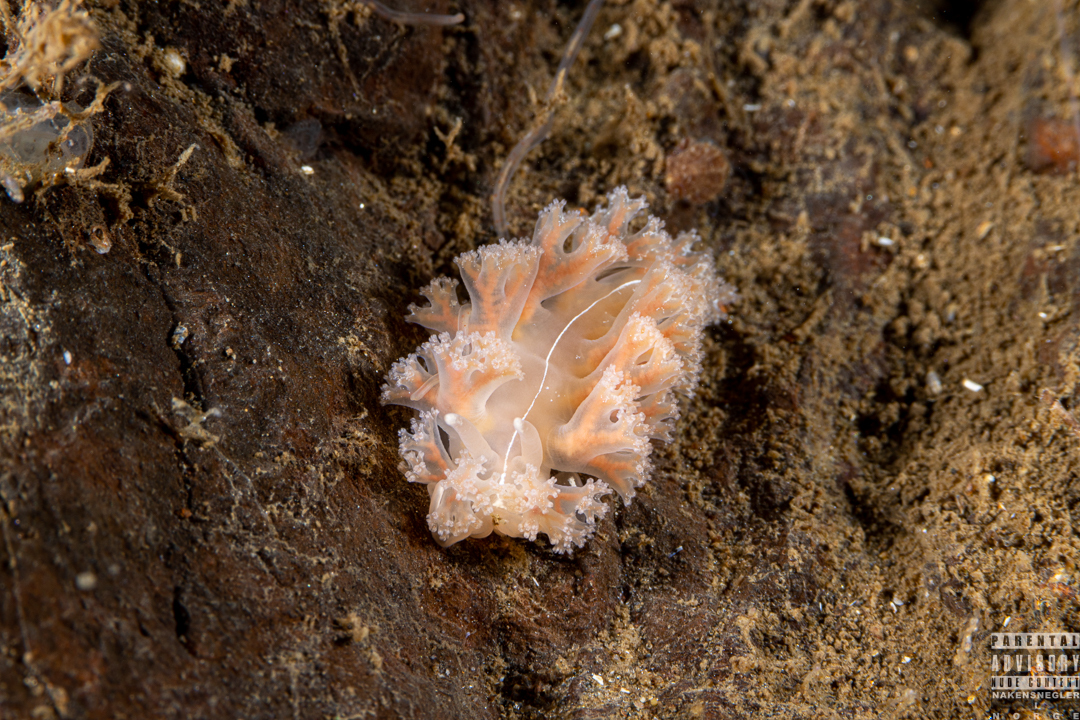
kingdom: Animalia
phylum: Mollusca
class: Gastropoda
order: Nudibranchia
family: Heroidae
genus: Hero
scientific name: Hero formosa
